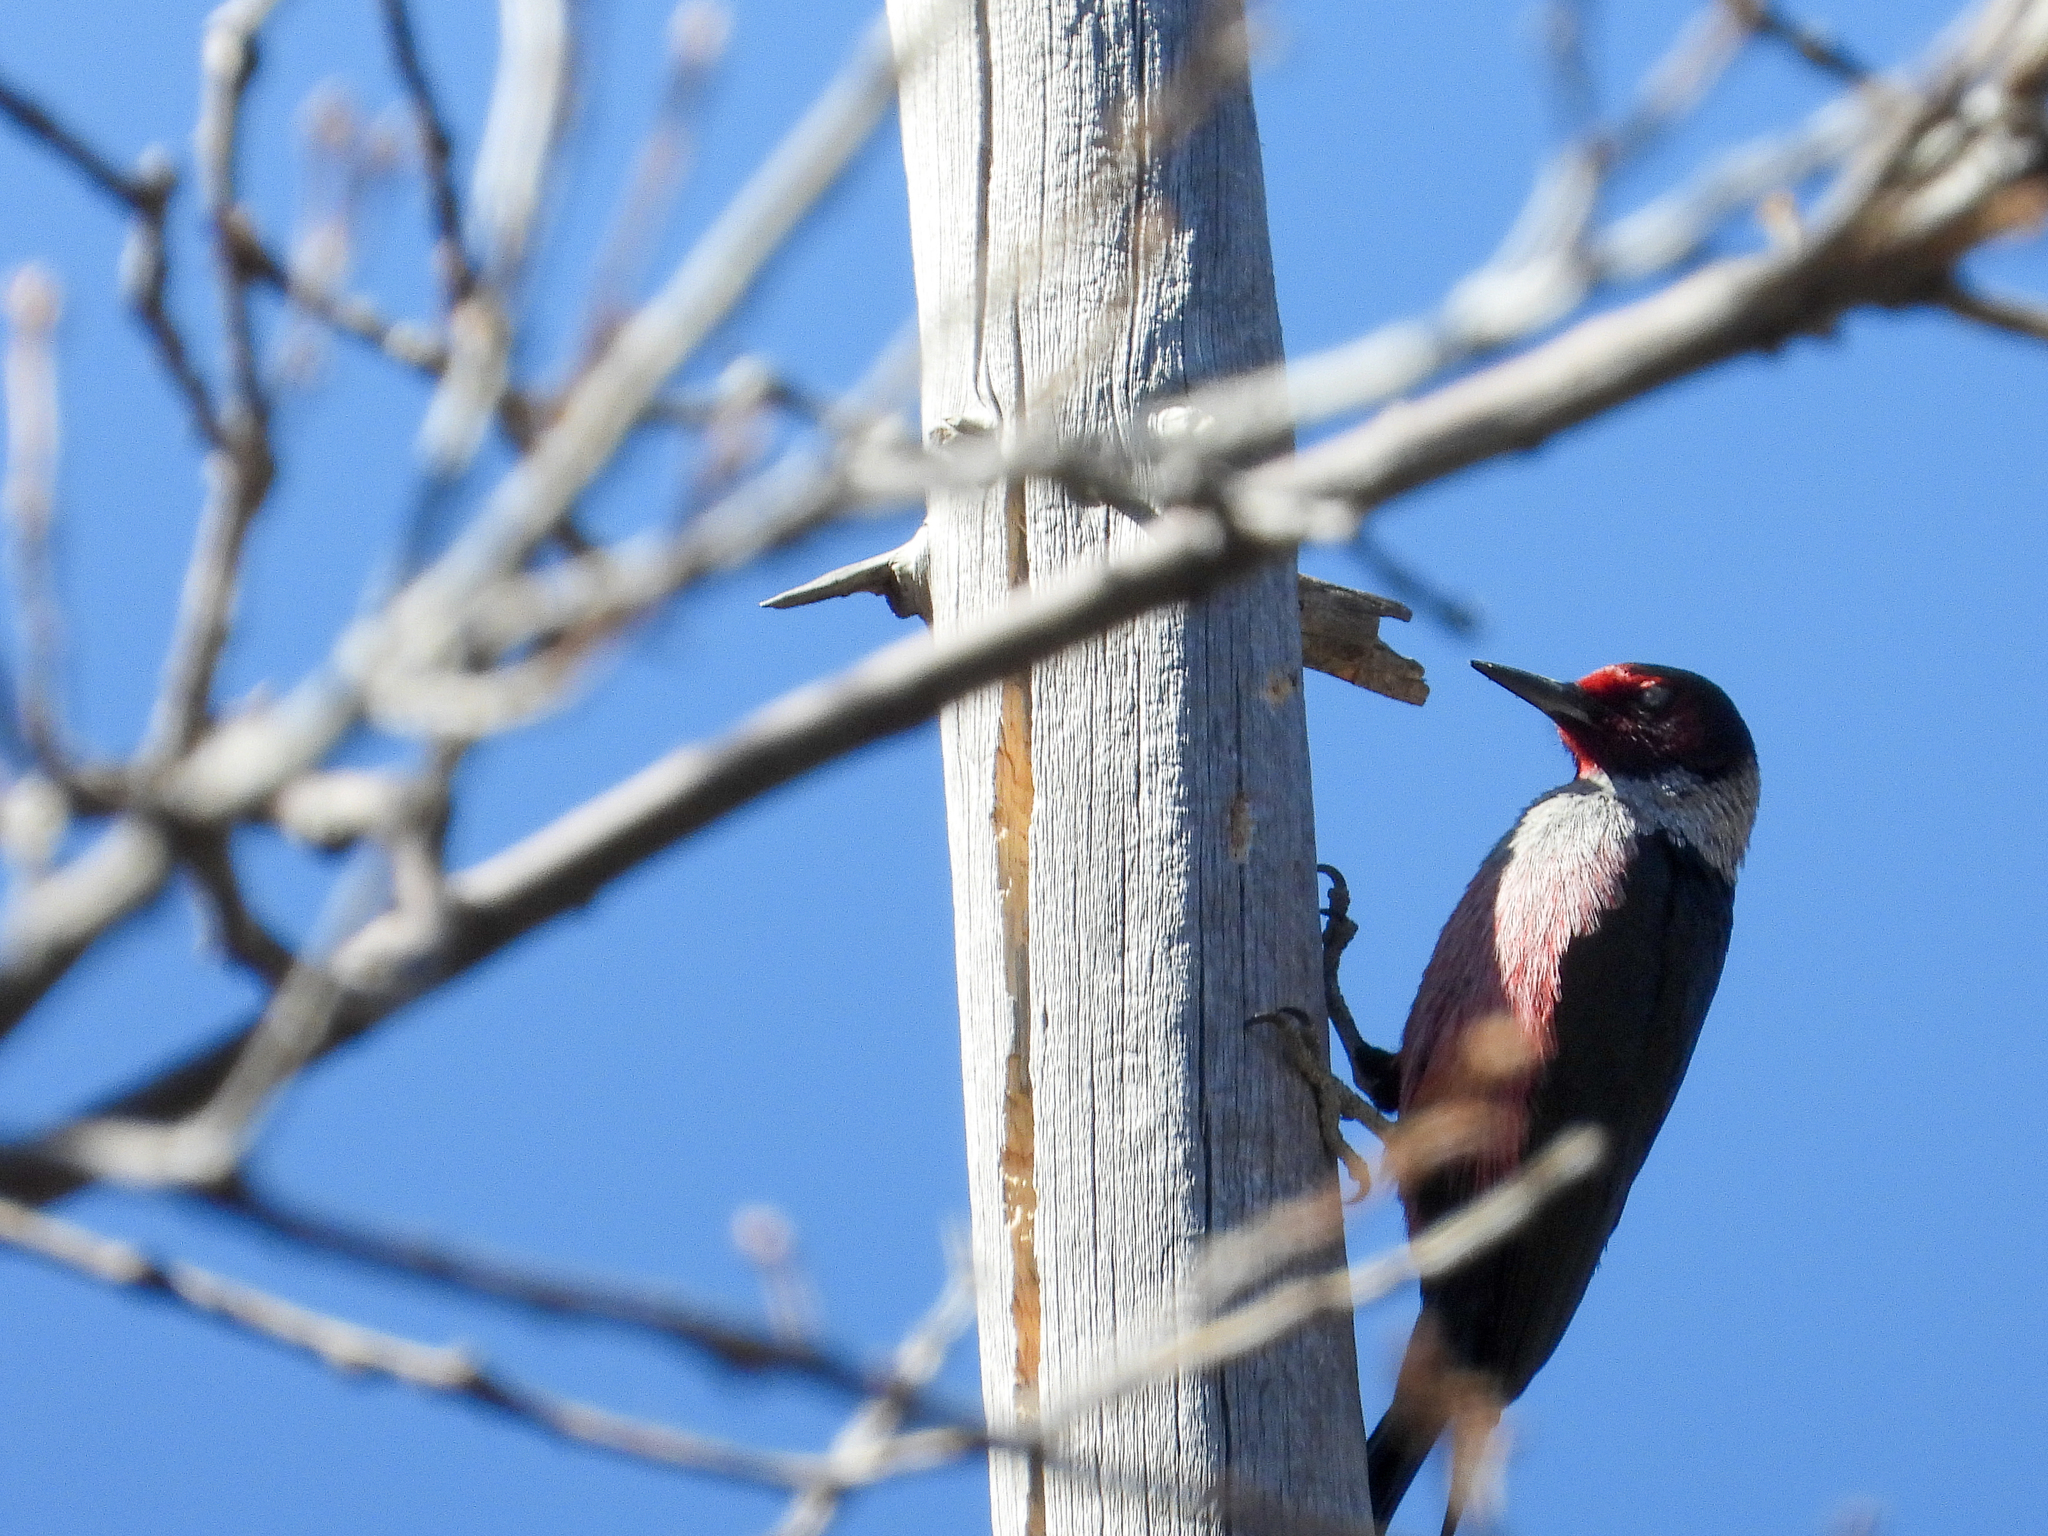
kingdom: Animalia
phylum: Chordata
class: Aves
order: Piciformes
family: Picidae
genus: Melanerpes
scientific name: Melanerpes lewis
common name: Lewis's woodpecker
